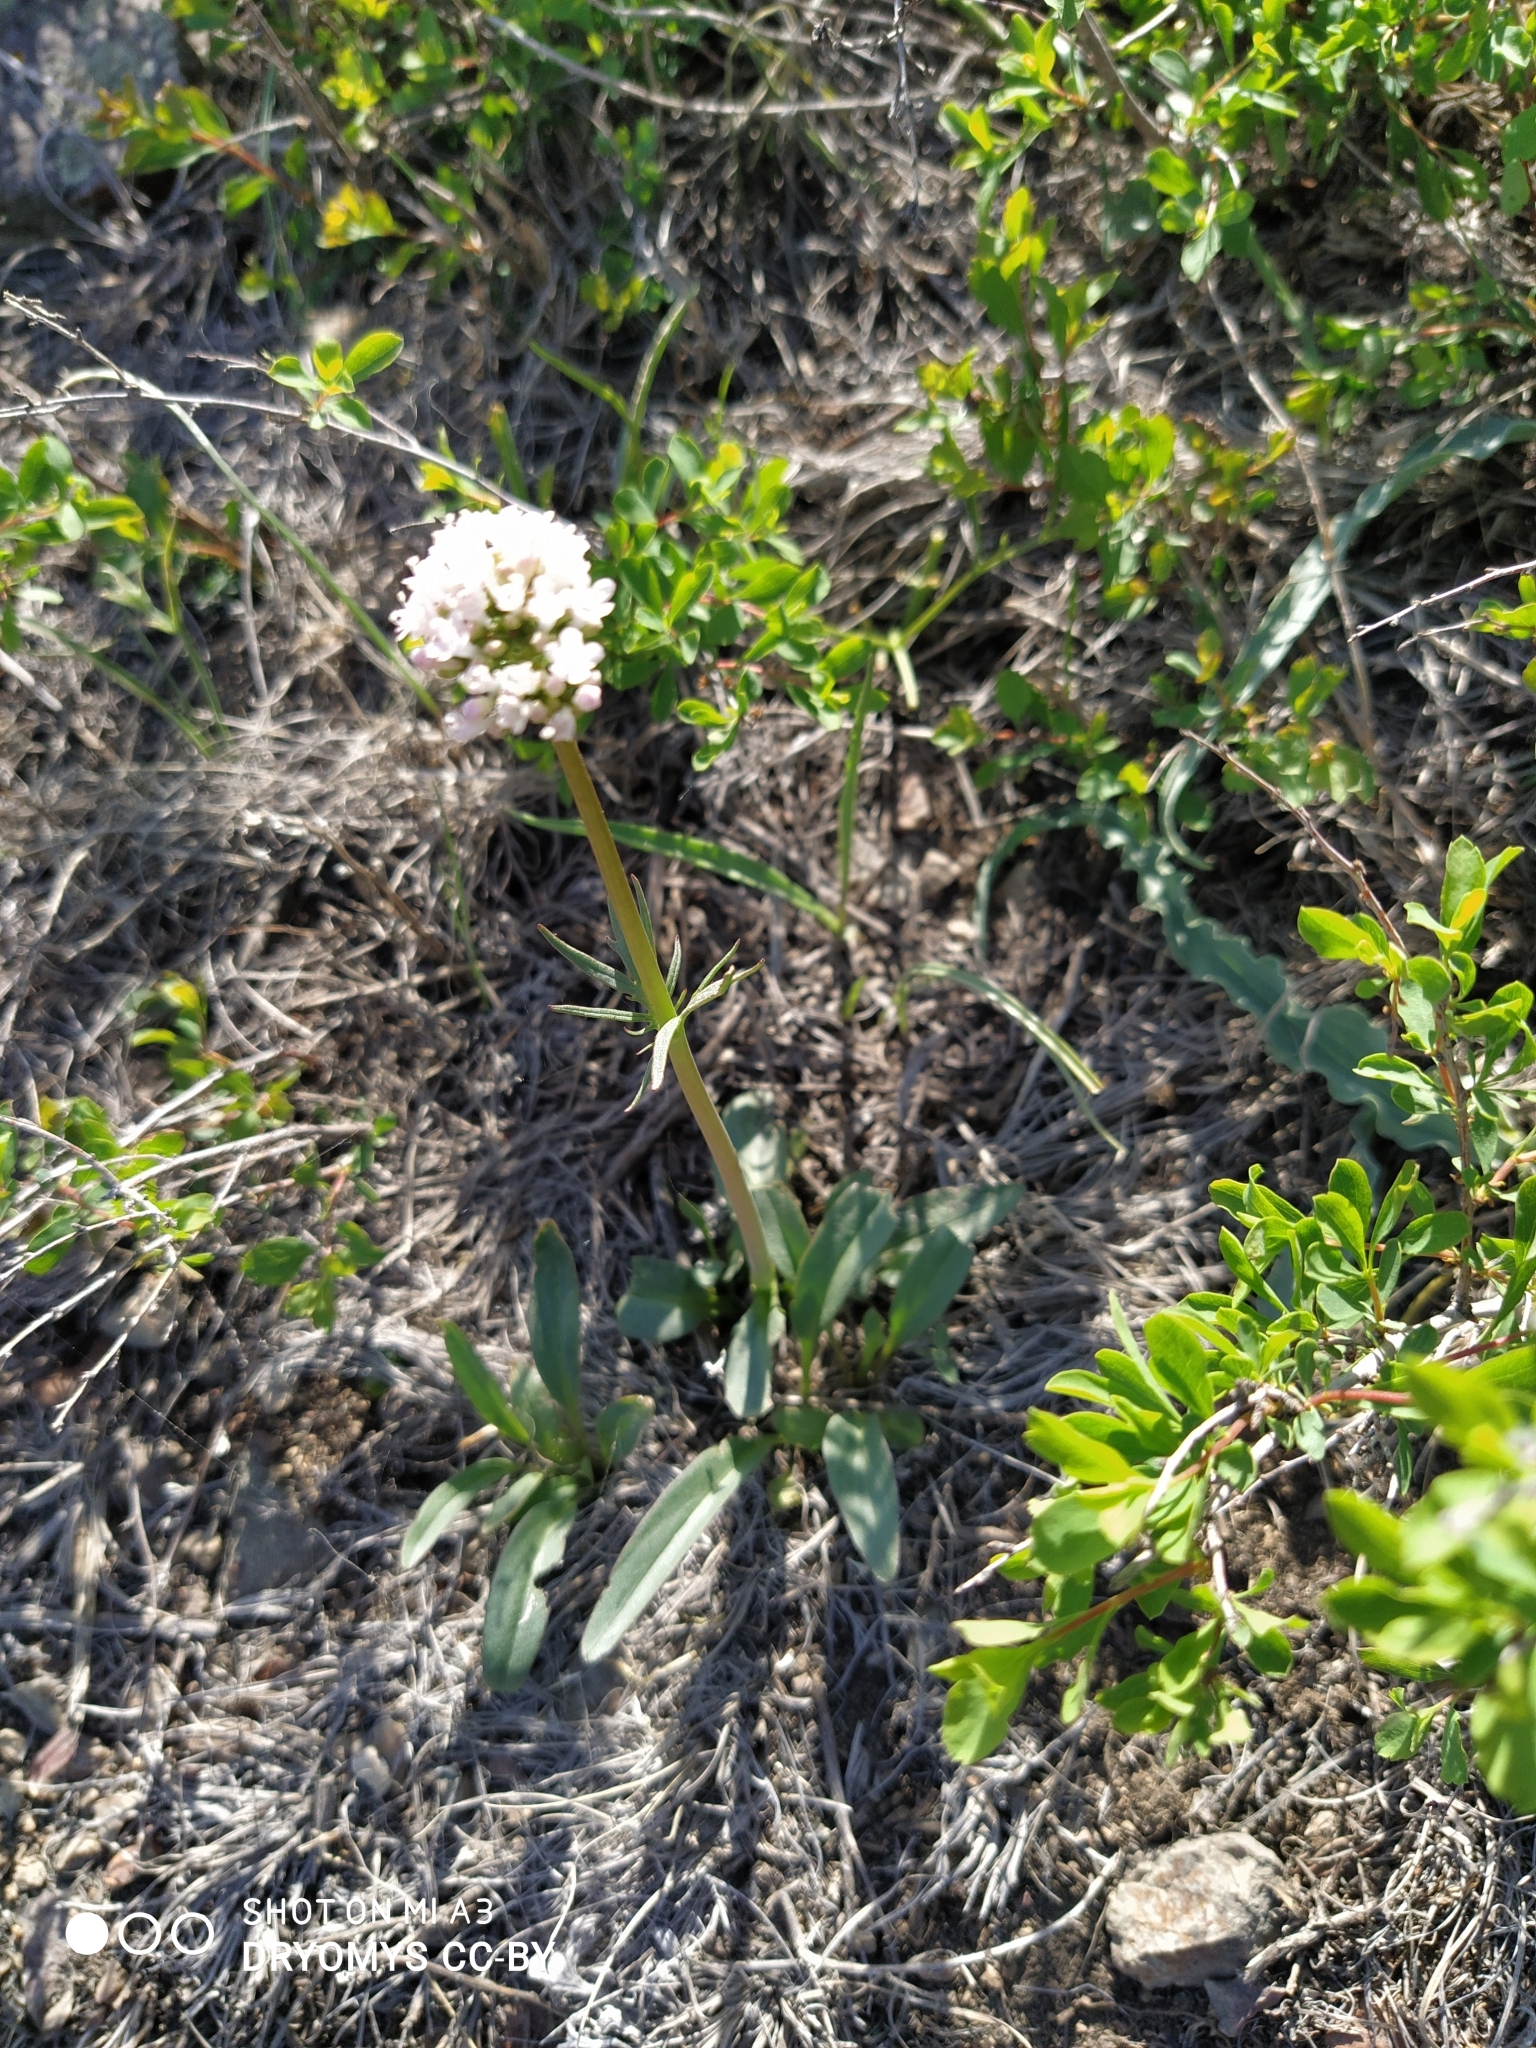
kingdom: Plantae
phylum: Tracheophyta
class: Magnoliopsida
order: Dipsacales
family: Caprifoliaceae
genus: Valeriana
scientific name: Valeriana tuberosa
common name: Tuberous valerian
